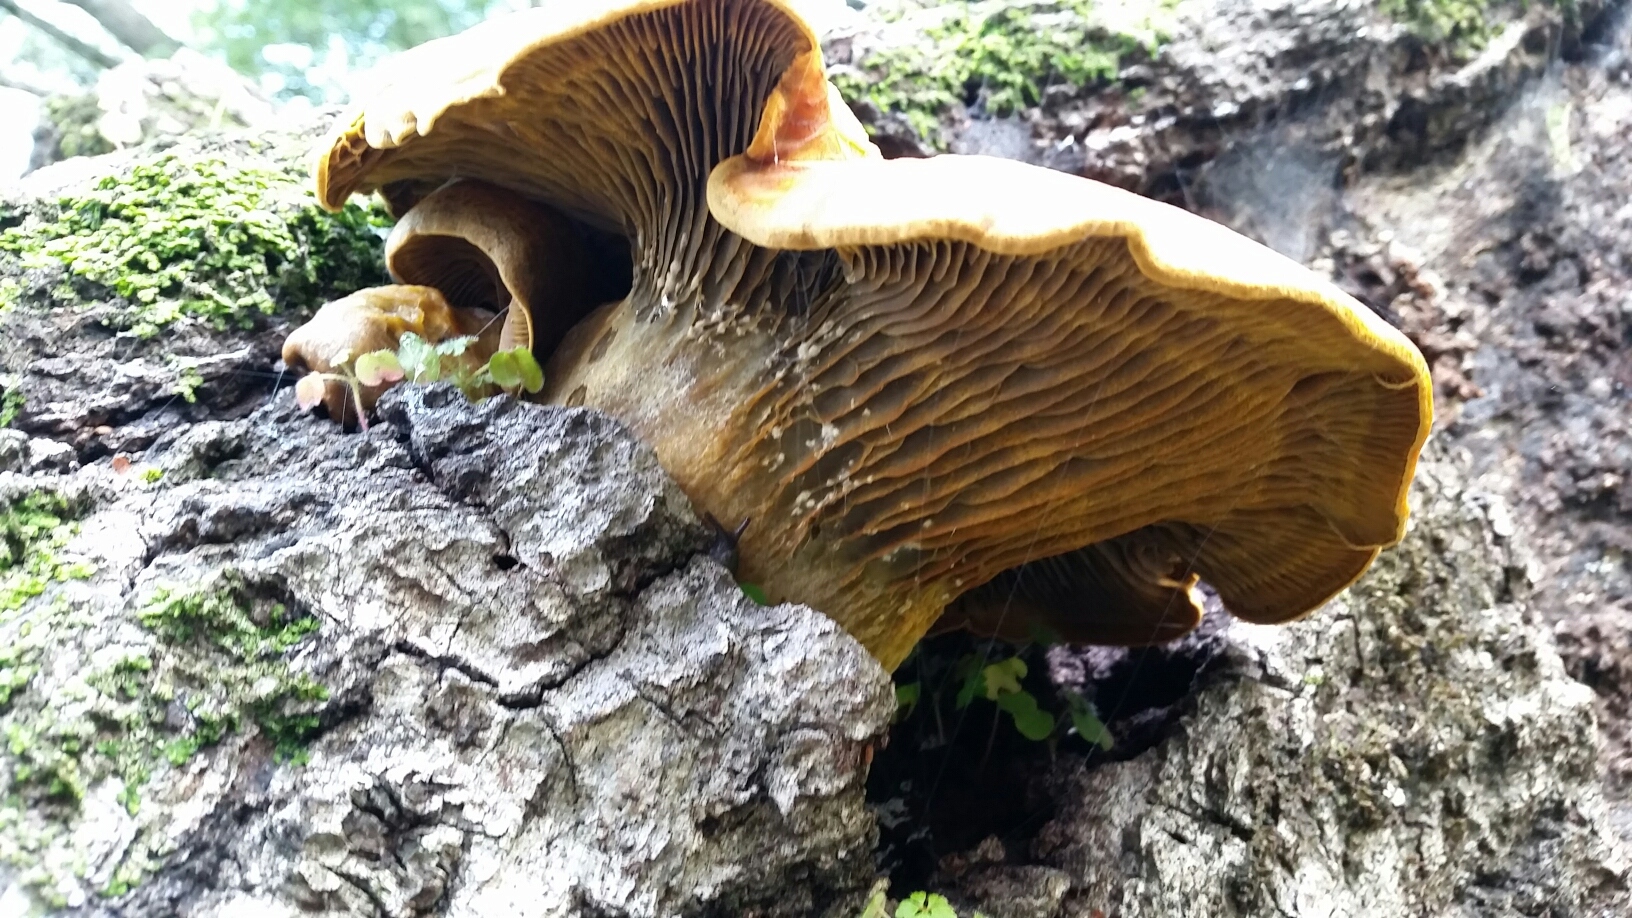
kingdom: Fungi
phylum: Basidiomycota
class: Agaricomycetes
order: Agaricales
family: Omphalotaceae
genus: Omphalotus
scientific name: Omphalotus olivascens
